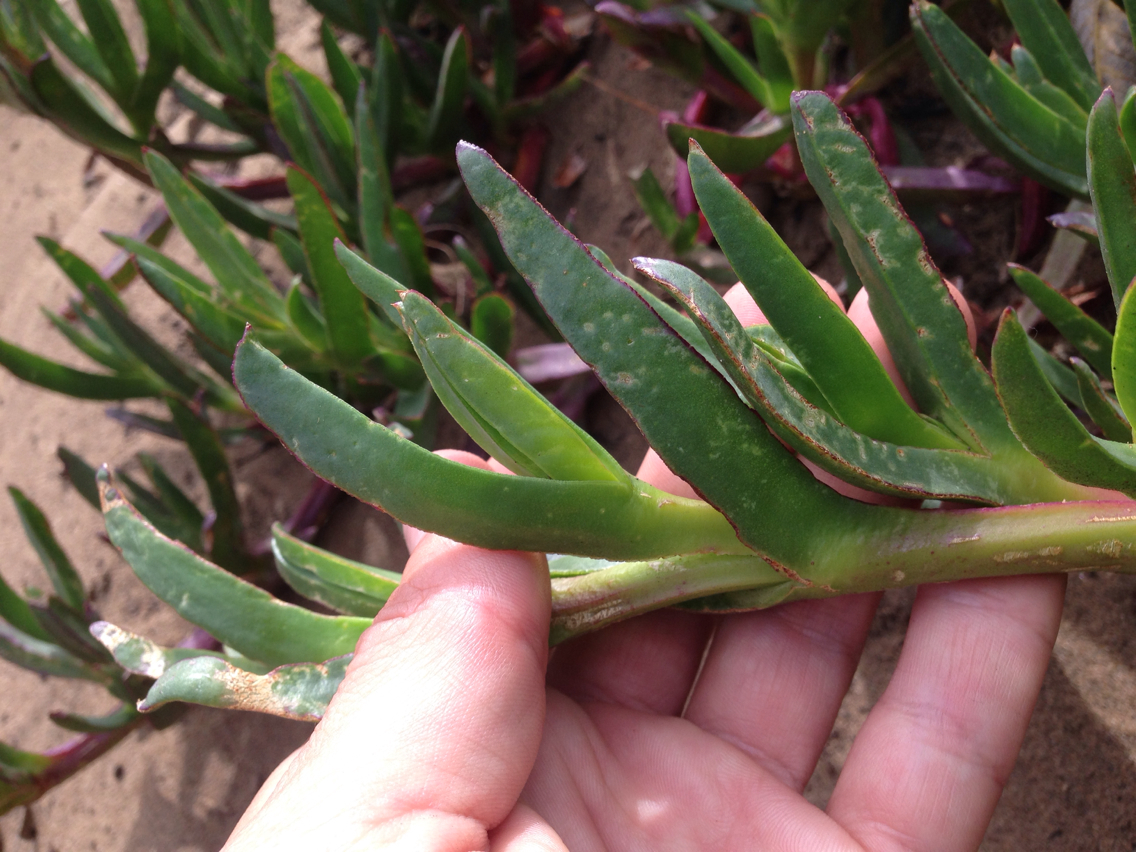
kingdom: Plantae
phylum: Tracheophyta
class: Magnoliopsida
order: Caryophyllales
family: Aizoaceae
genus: Carpobrotus
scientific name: Carpobrotus edulis
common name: Hottentot-fig
